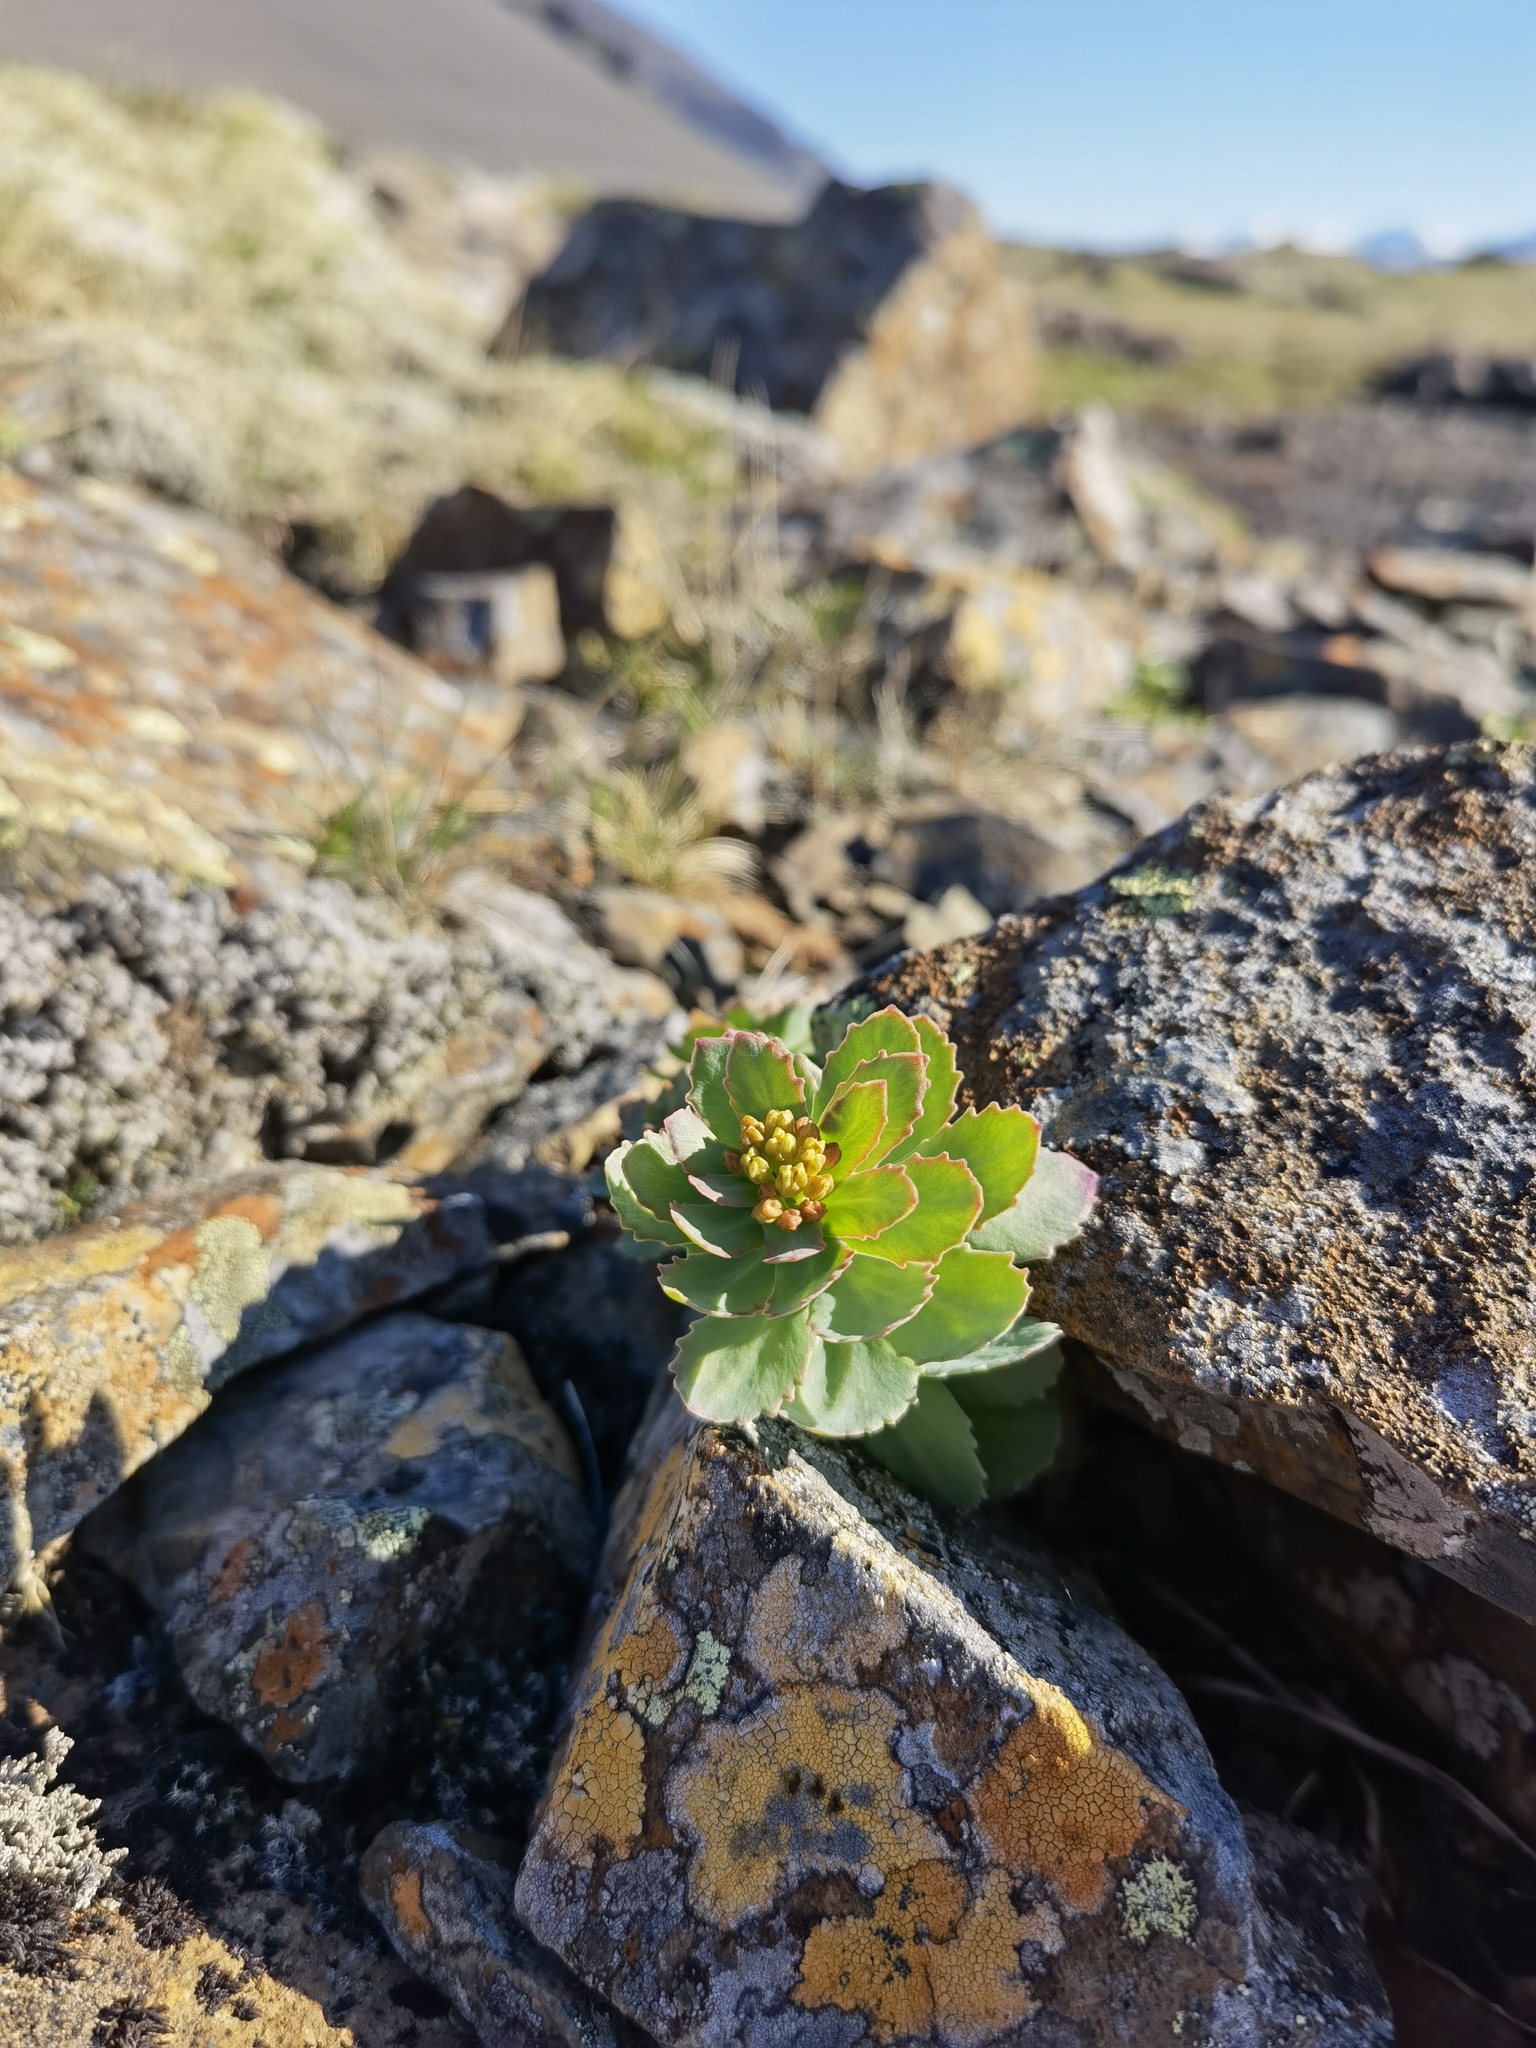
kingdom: Plantae
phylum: Tracheophyta
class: Magnoliopsida
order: Saxifragales
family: Crassulaceae
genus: Rhodiola
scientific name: Rhodiola rosea
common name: Roseroot
